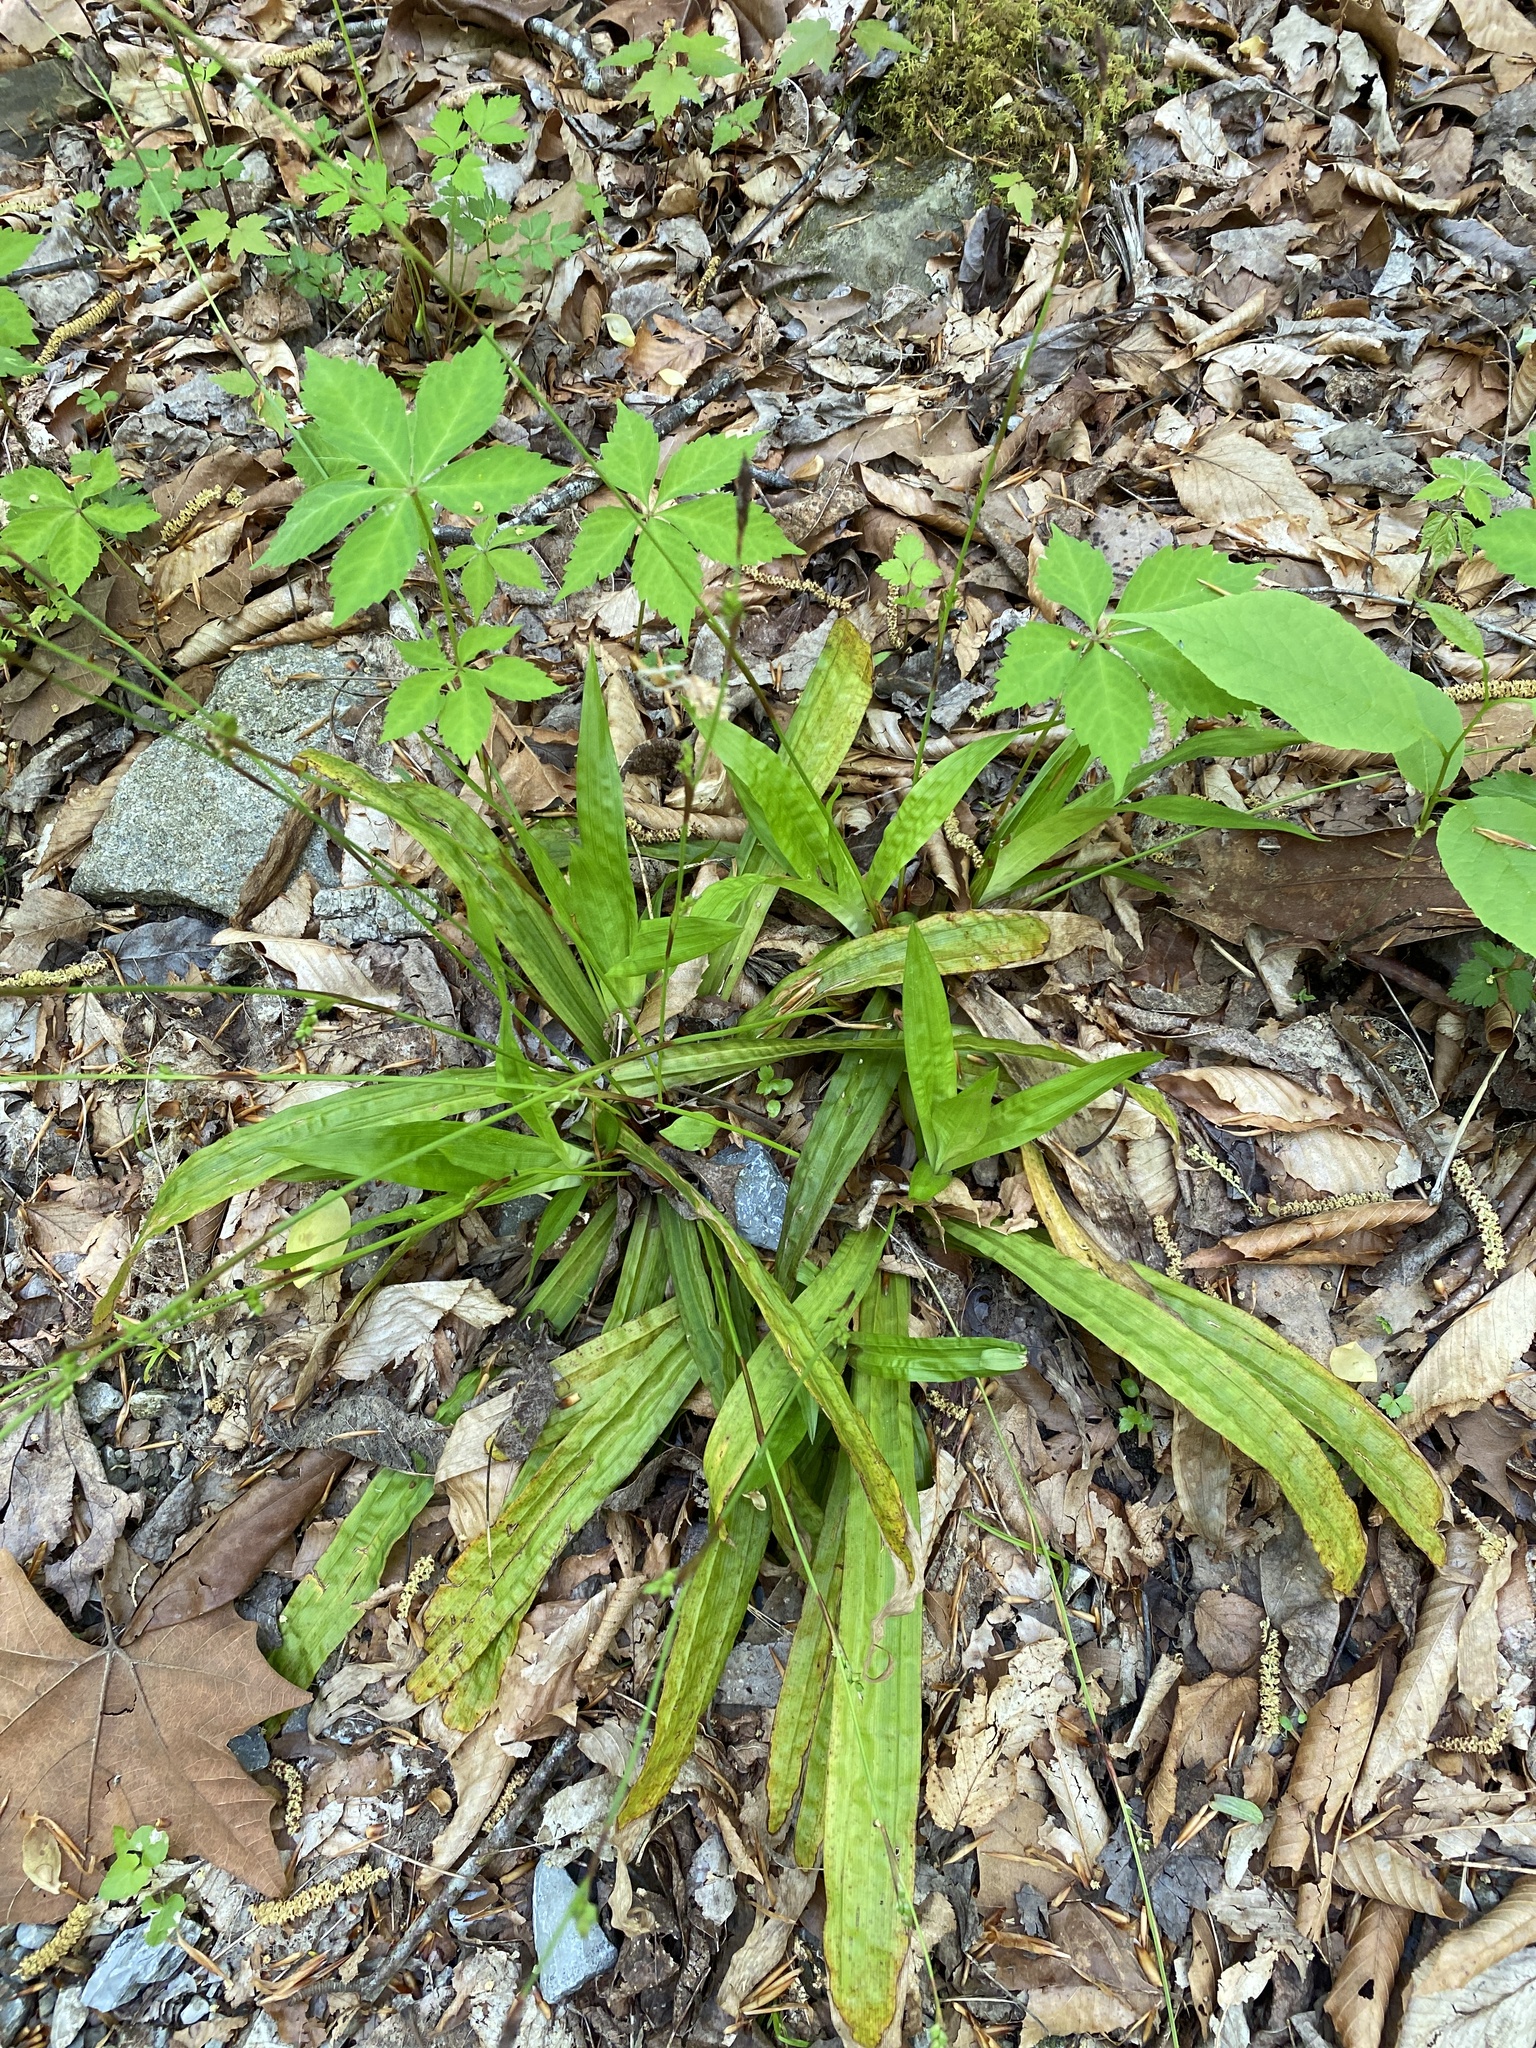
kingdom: Plantae
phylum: Tracheophyta
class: Liliopsida
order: Poales
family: Cyperaceae
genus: Carex
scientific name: Carex plantaginea
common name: Plantain-leaved sedge
